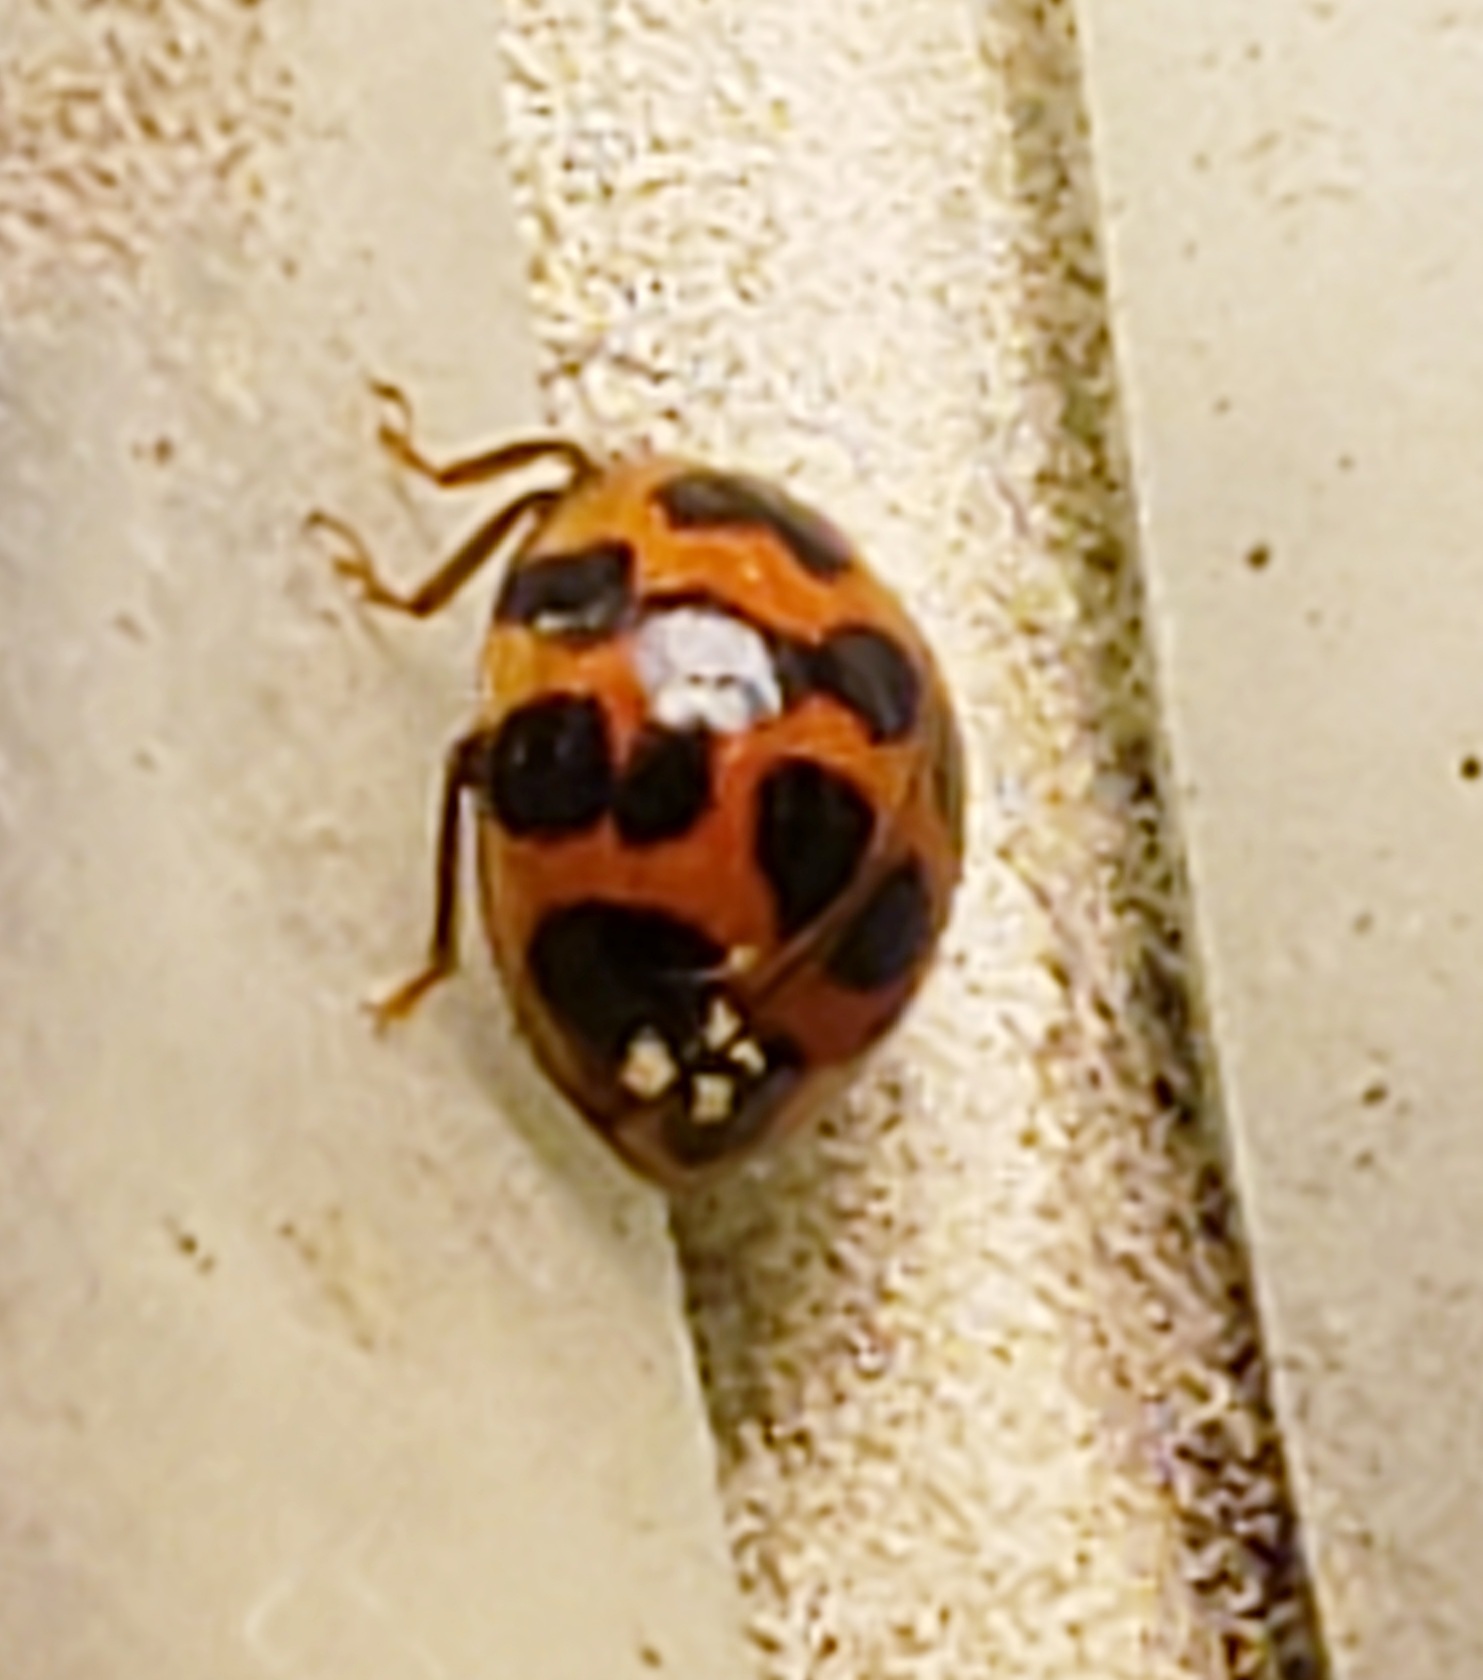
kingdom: Animalia
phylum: Arthropoda
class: Insecta
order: Coleoptera
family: Coccinellidae
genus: Harmonia
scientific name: Harmonia axyridis
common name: Harlequin ladybird
